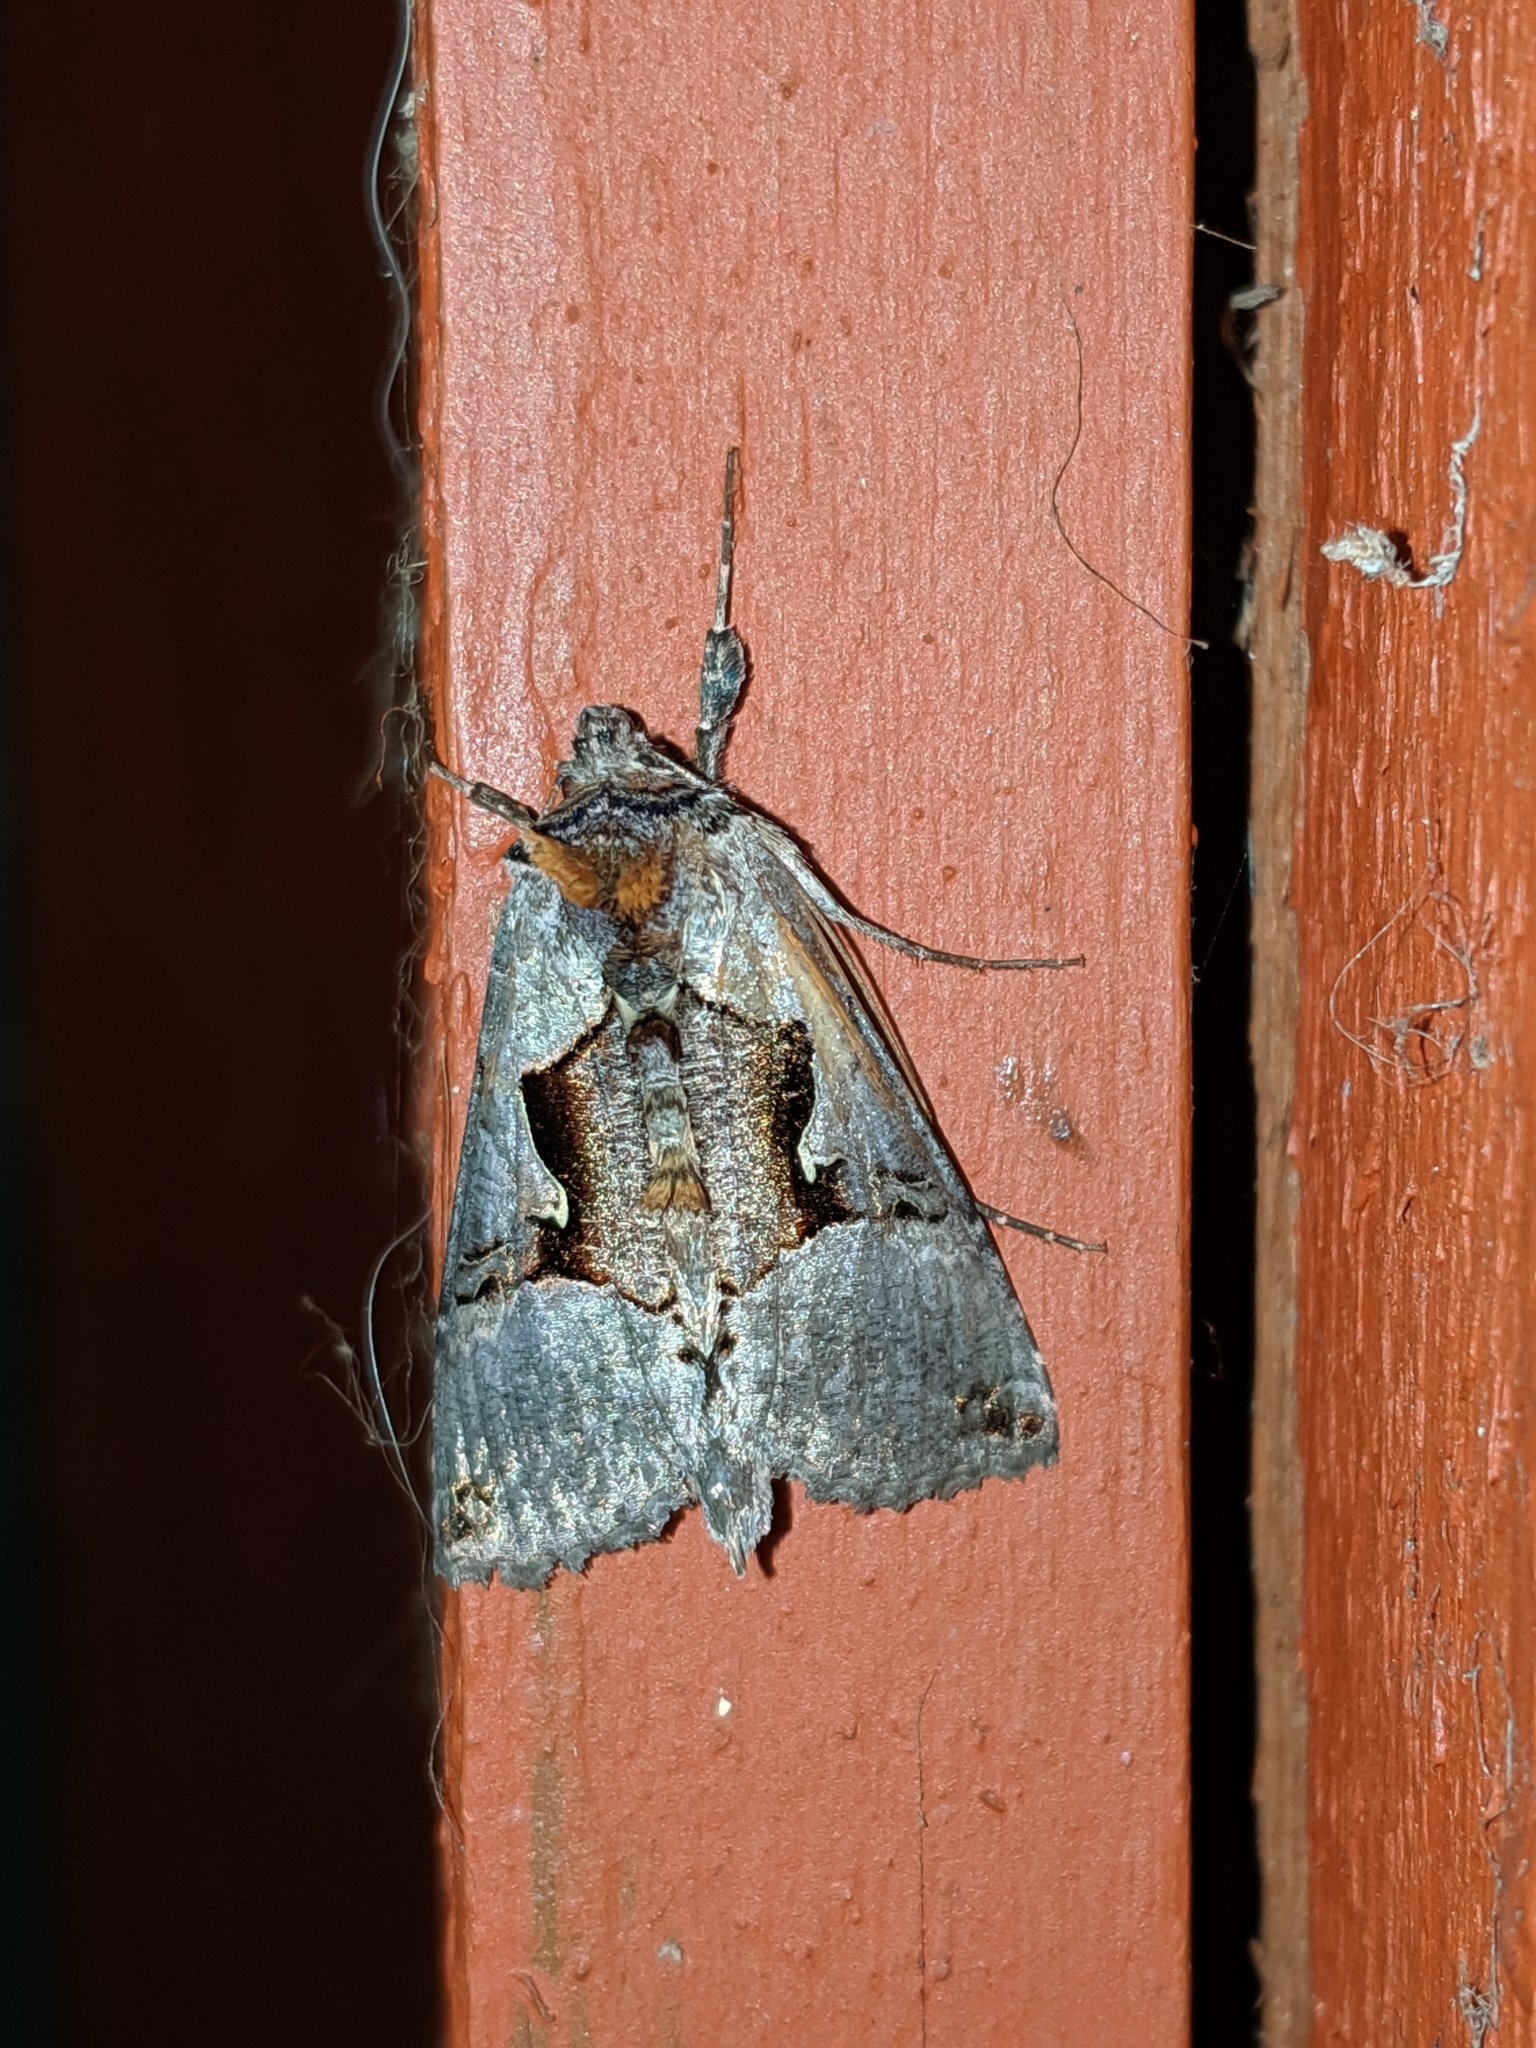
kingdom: Animalia
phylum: Arthropoda
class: Insecta
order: Lepidoptera
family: Noctuidae
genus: Autographa
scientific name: Autographa ampla
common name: Large looper moth
